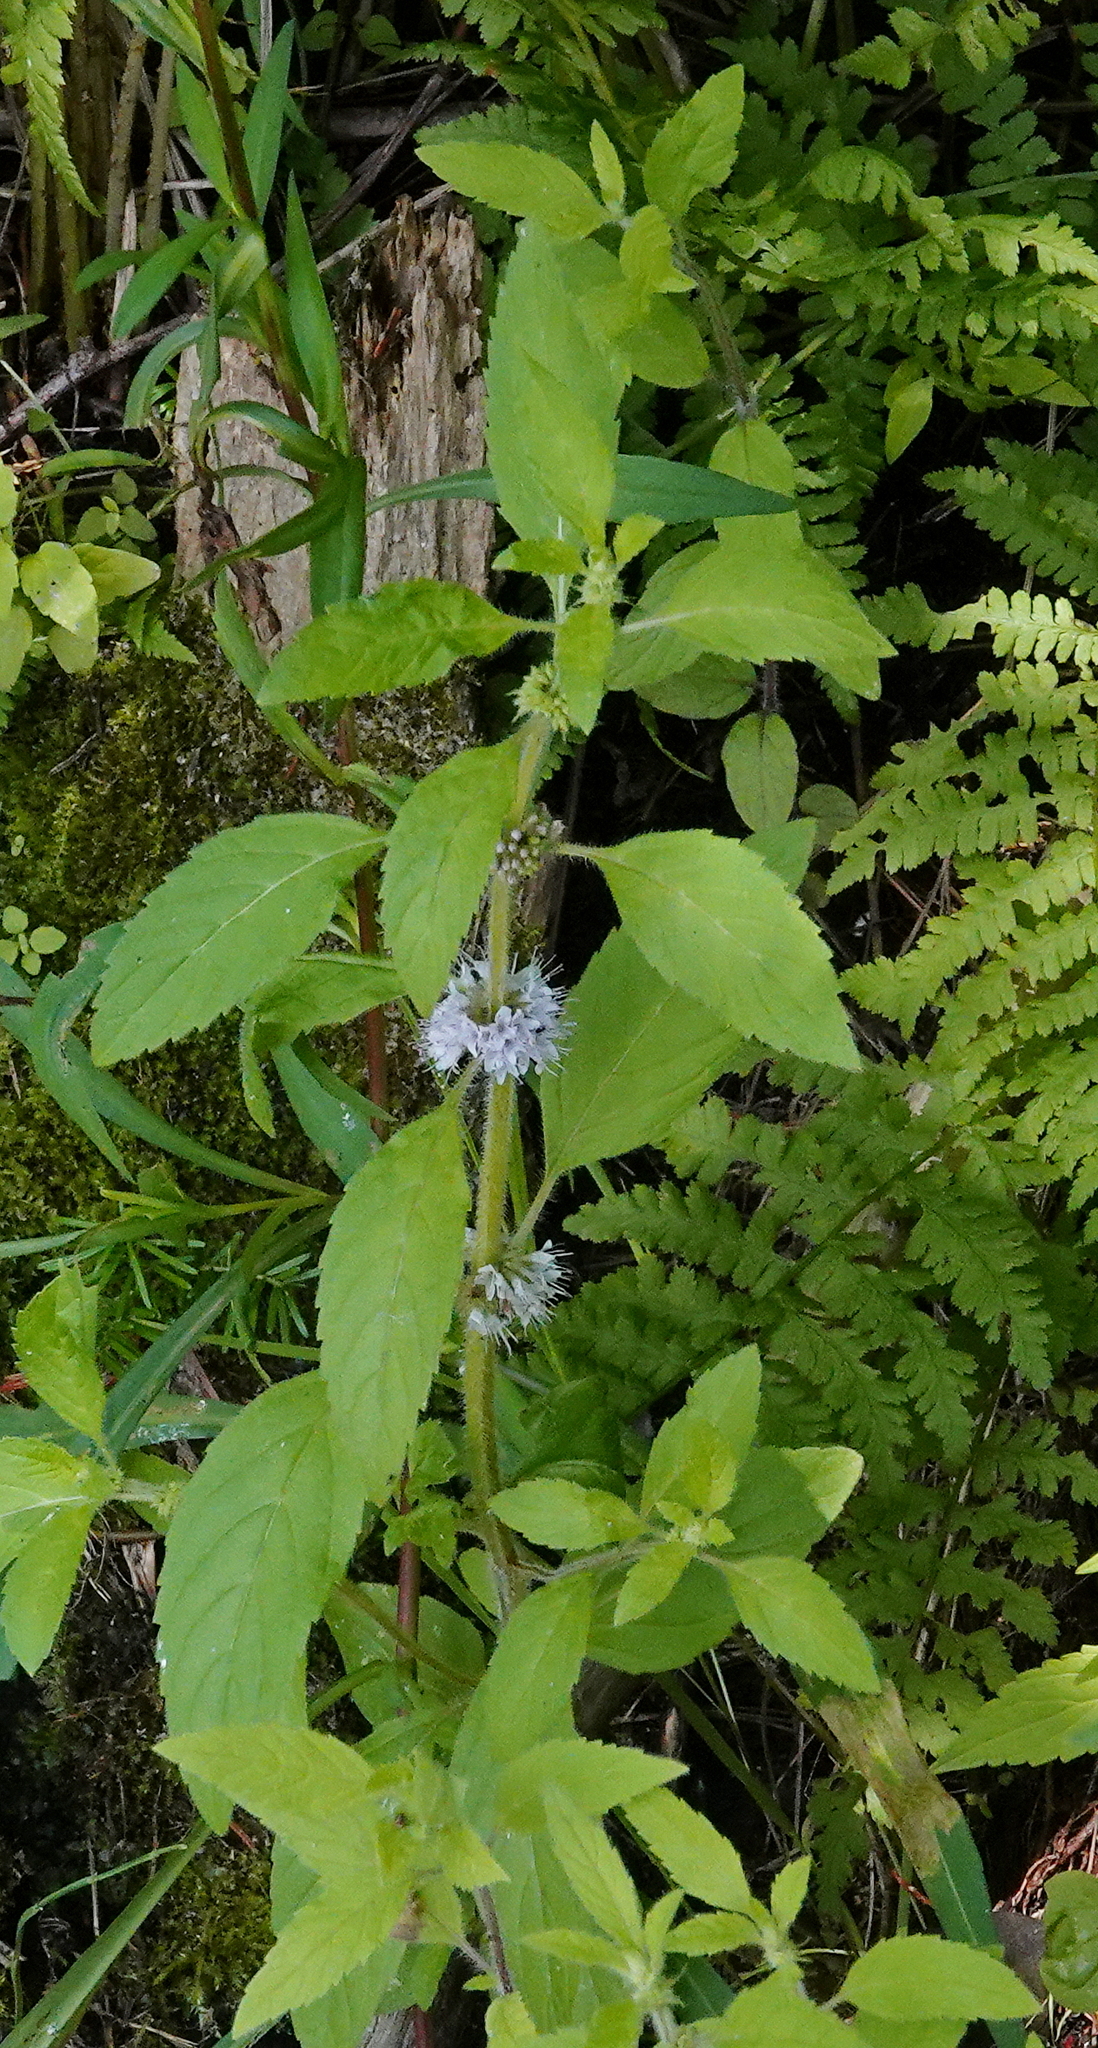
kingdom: Plantae
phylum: Tracheophyta
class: Magnoliopsida
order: Lamiales
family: Lamiaceae
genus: Mentha
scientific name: Mentha canadensis
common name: American corn mint
